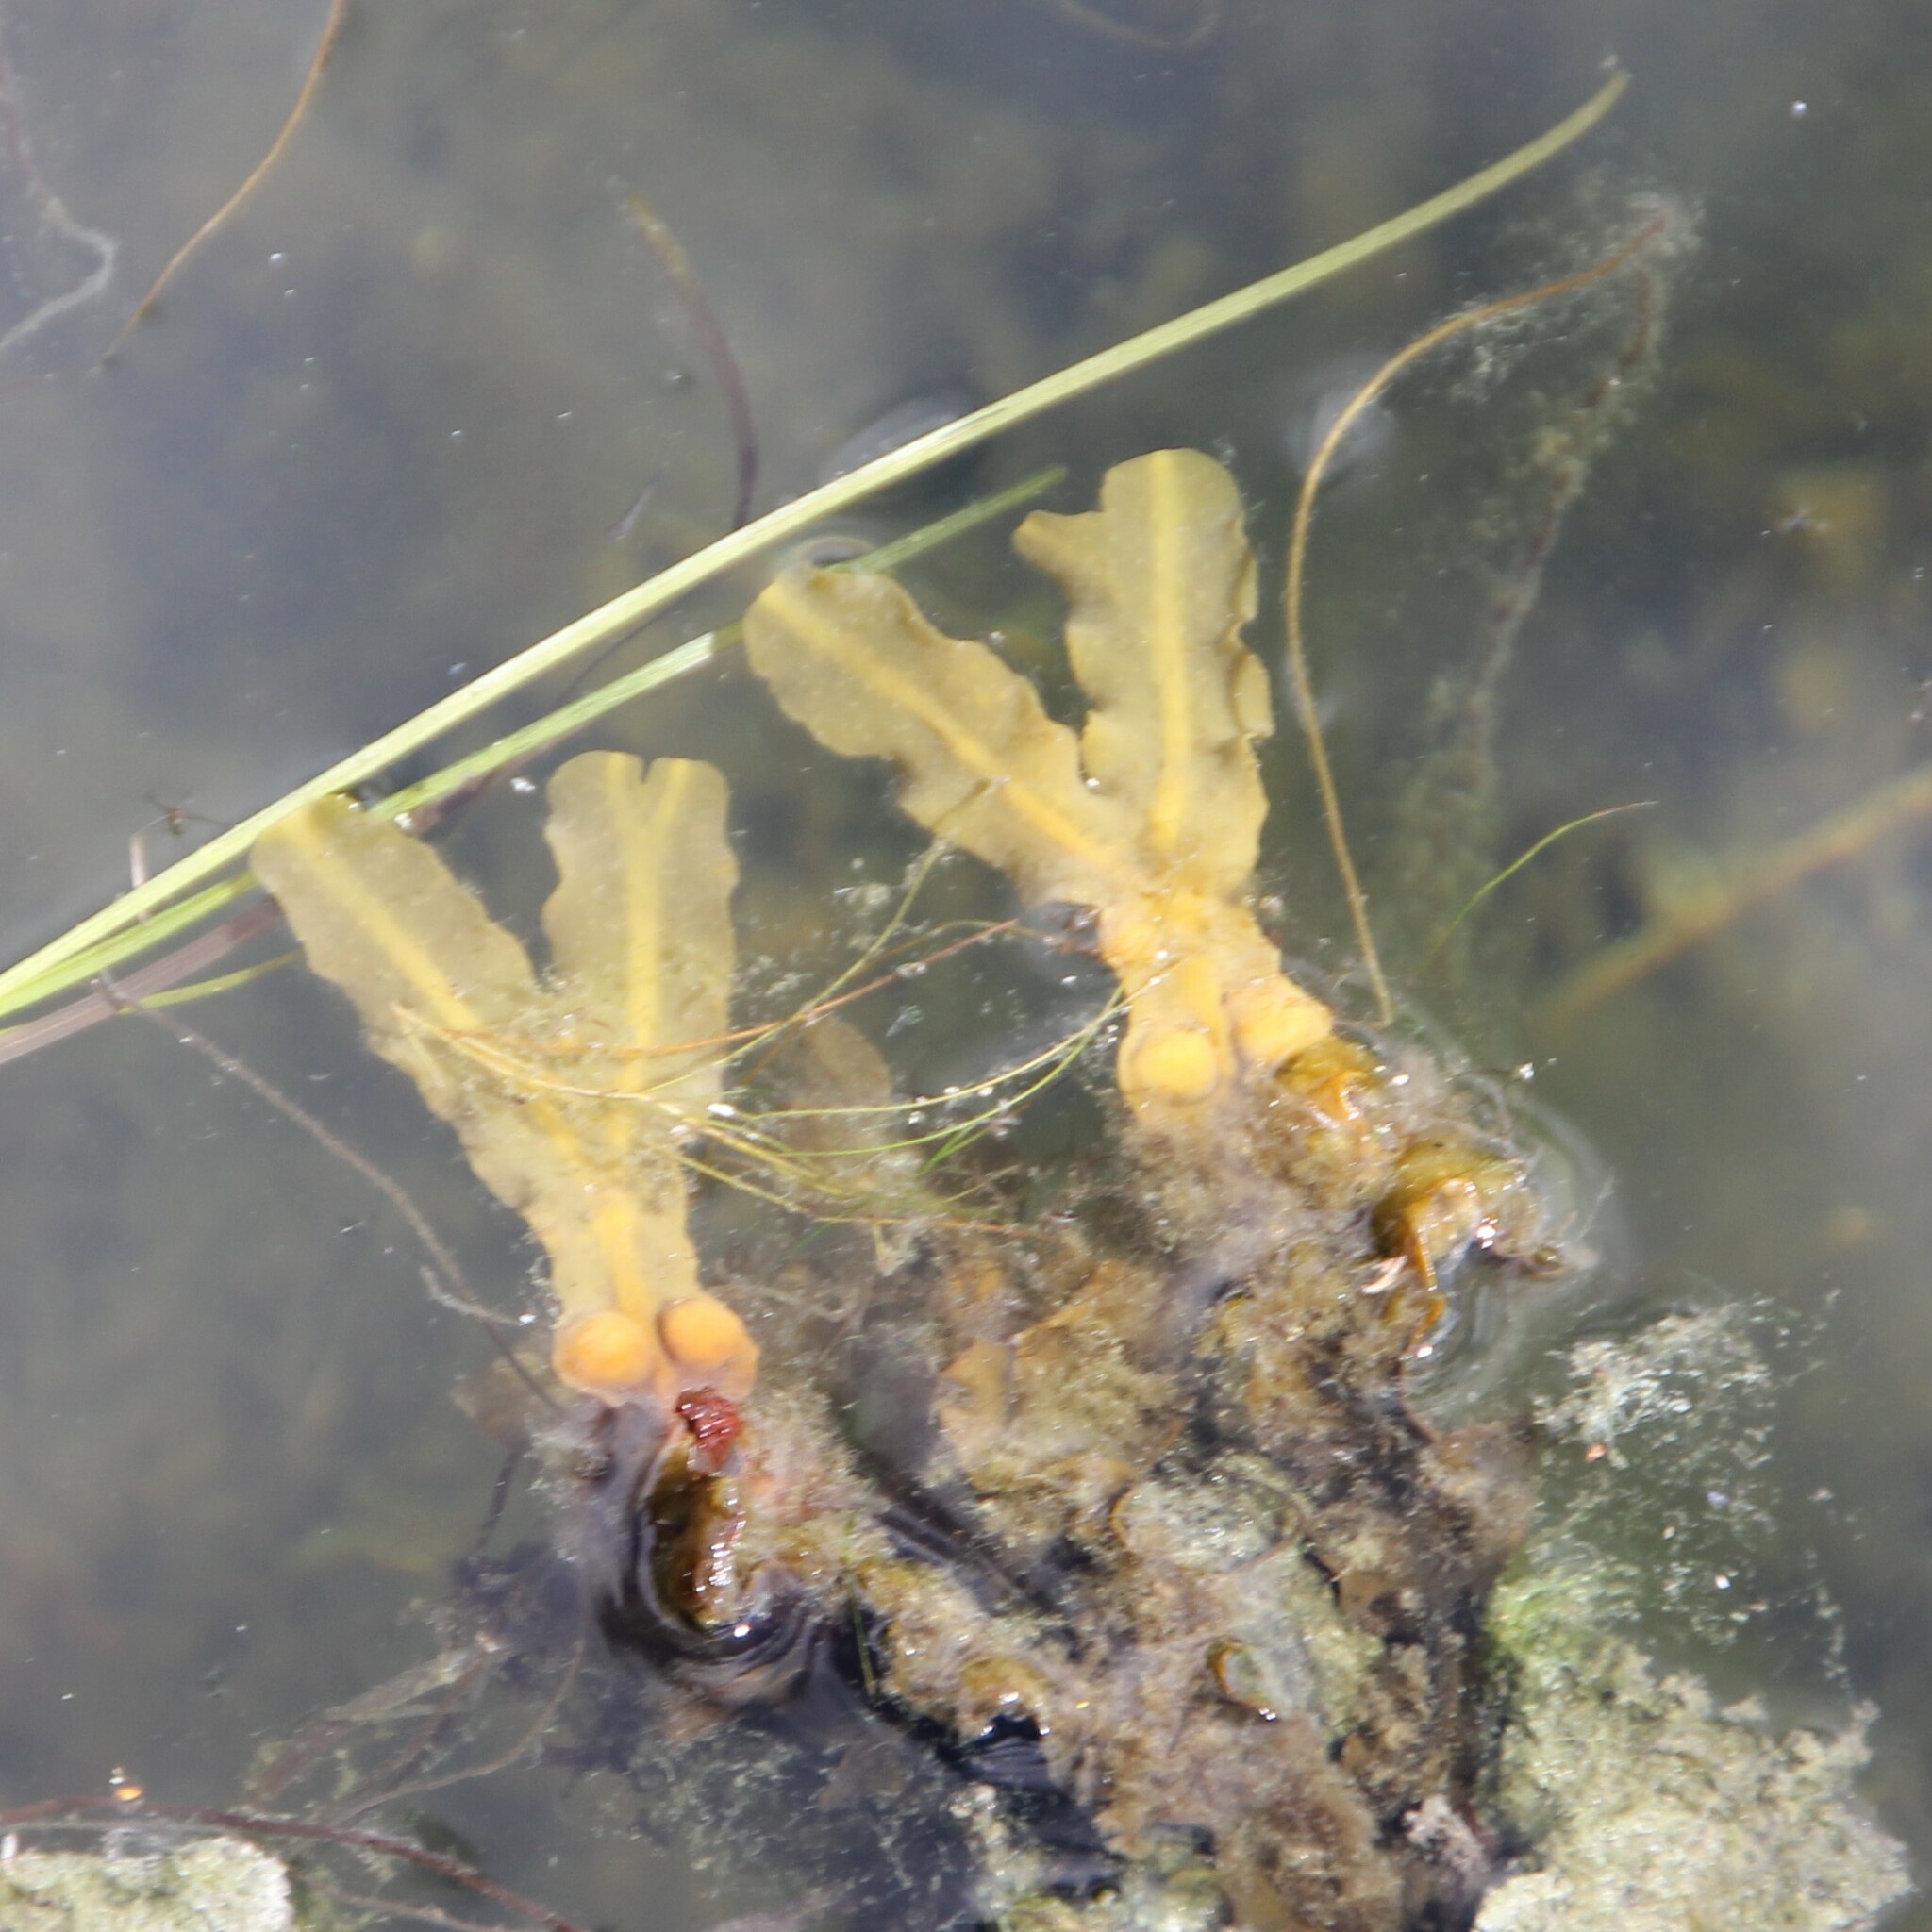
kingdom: Chromista
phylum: Ochrophyta
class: Phaeophyceae
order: Fucales
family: Fucaceae
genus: Fucus
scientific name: Fucus vesiculosus
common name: Bladder wrack
